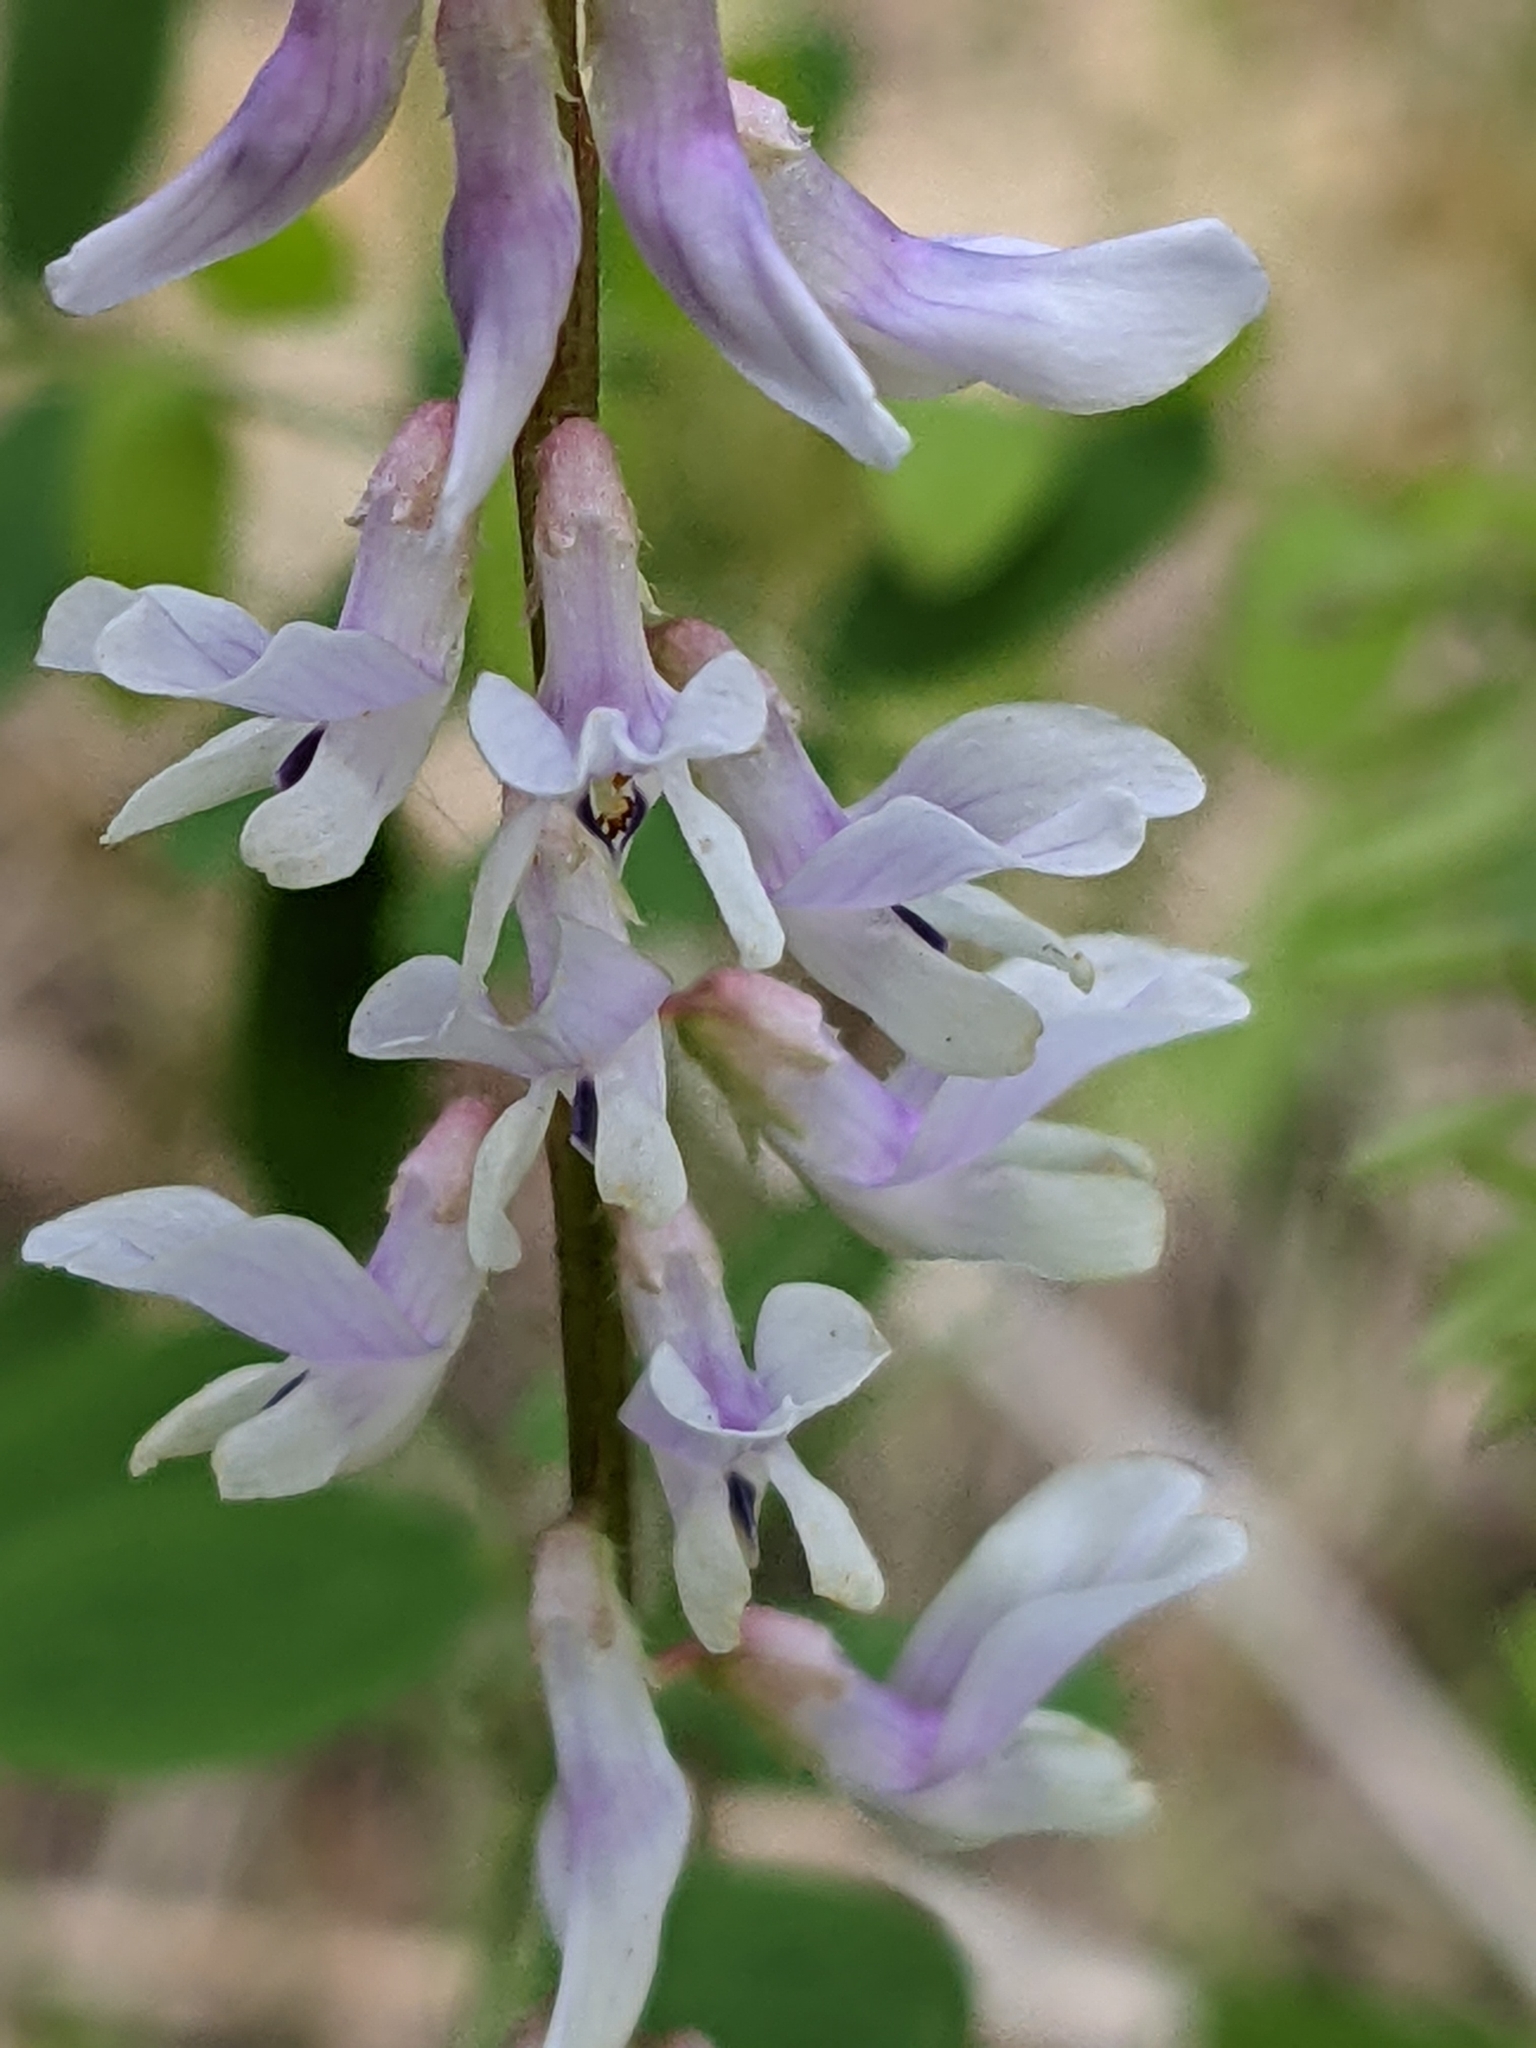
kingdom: Plantae
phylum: Tracheophyta
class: Magnoliopsida
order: Fabales
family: Fabaceae
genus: Vicia
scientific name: Vicia caroliniana
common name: Carolina vetch
